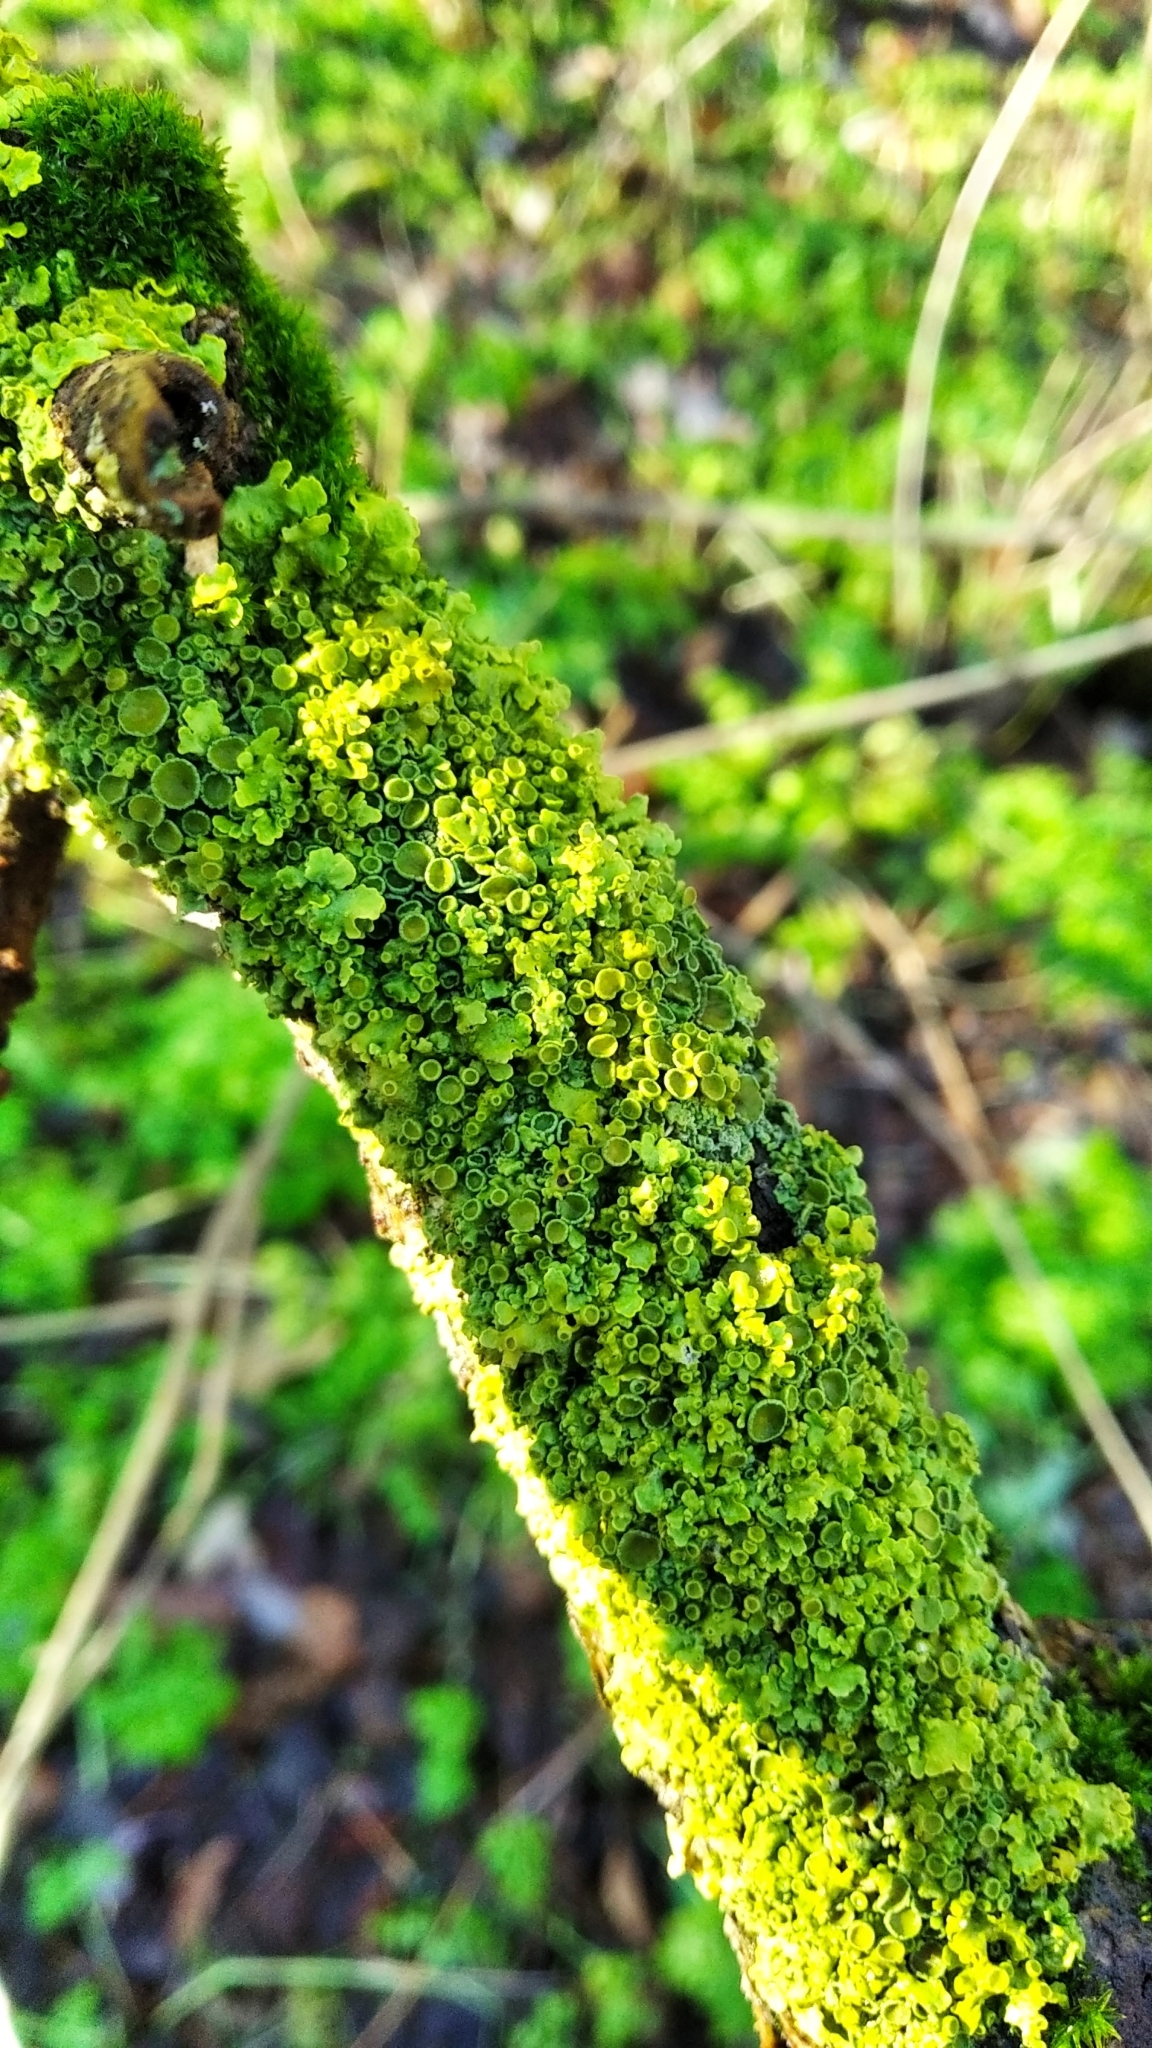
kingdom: Fungi
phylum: Ascomycota
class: Lecanoromycetes
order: Teloschistales
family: Teloschistaceae
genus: Xanthoria
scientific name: Xanthoria parietina
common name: Common orange lichen
